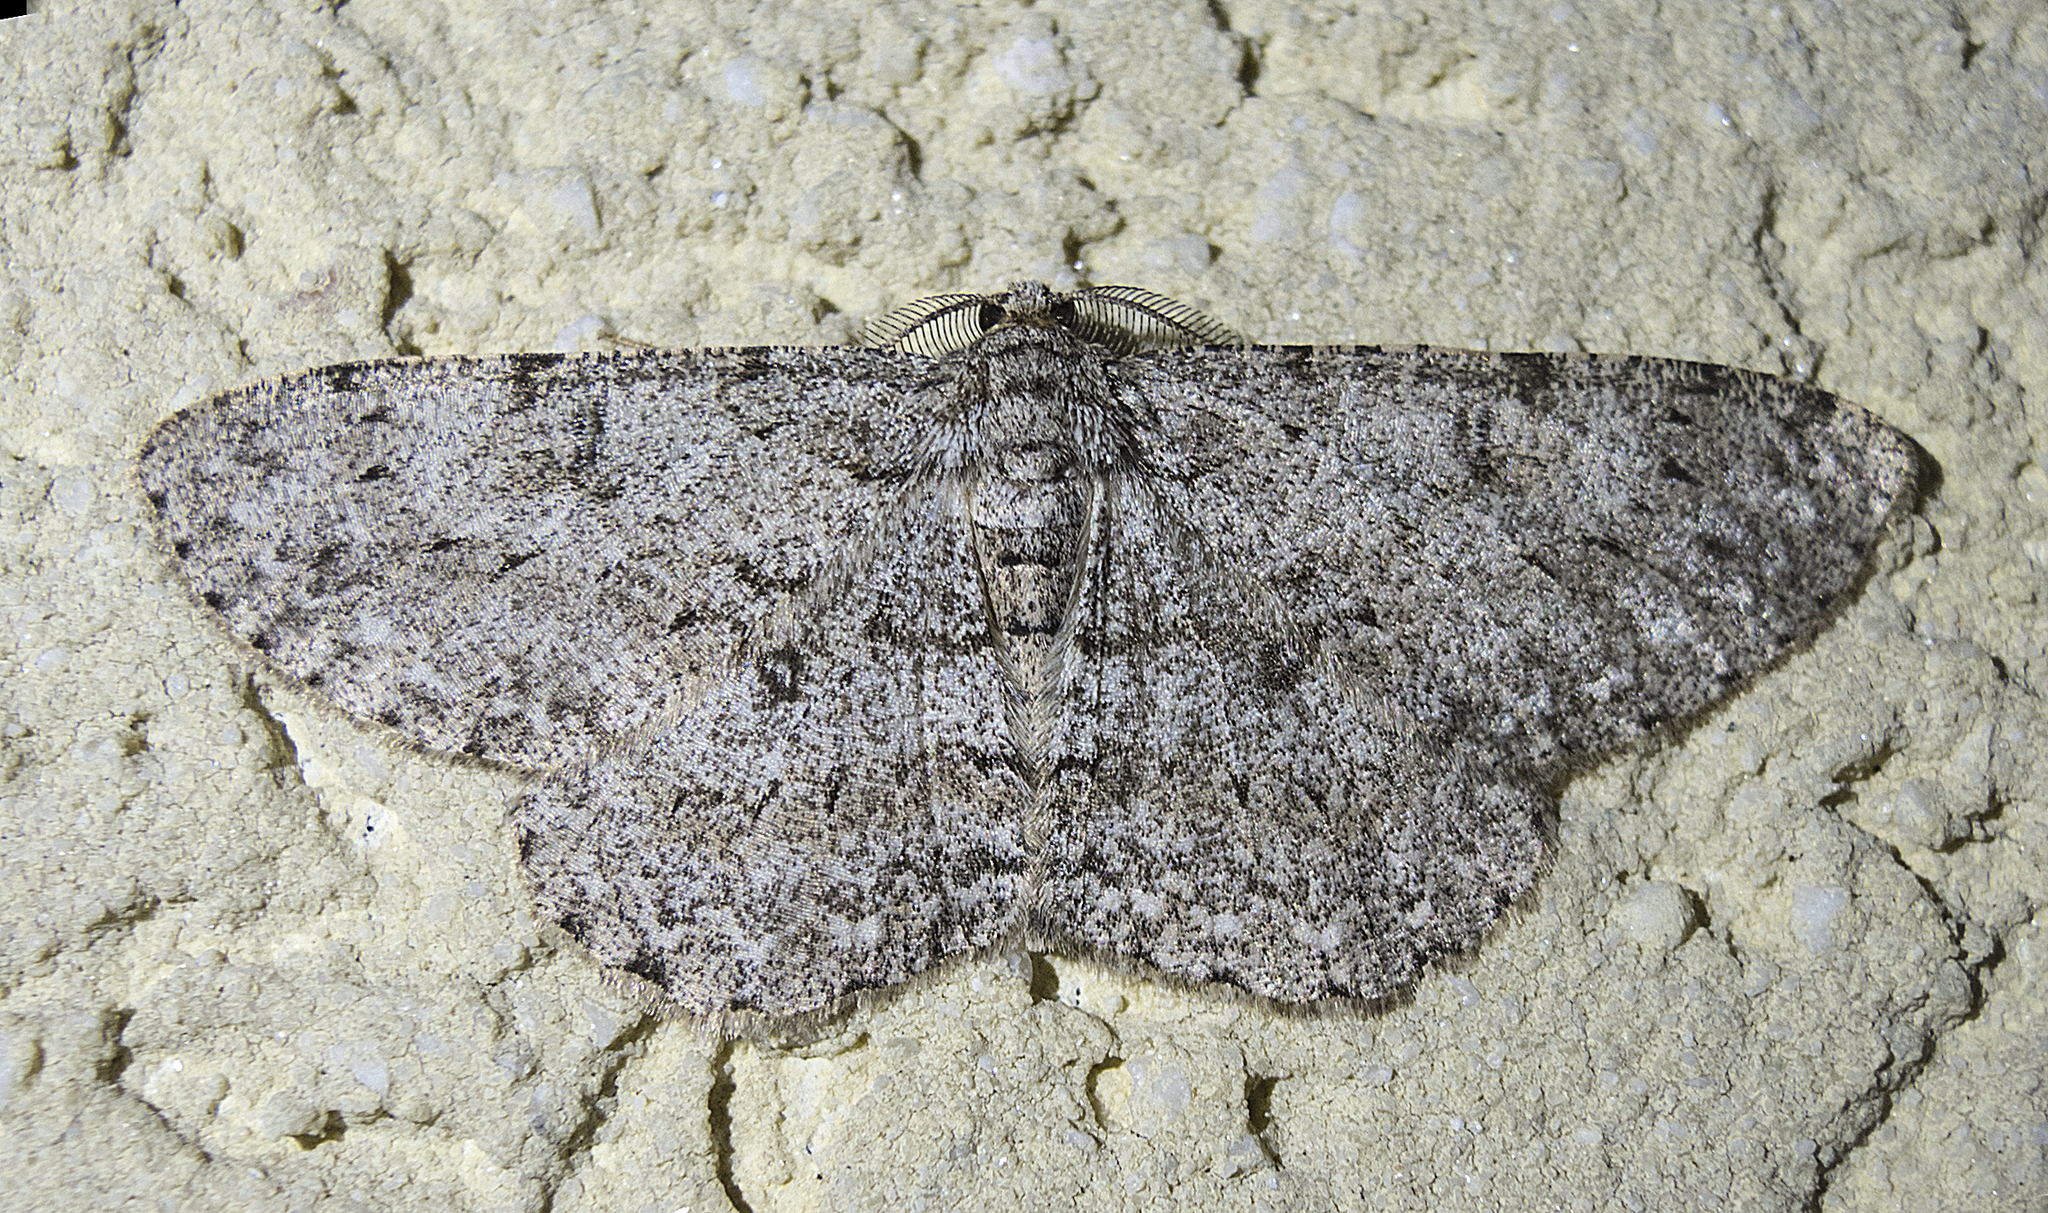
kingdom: Animalia
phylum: Arthropoda
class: Insecta
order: Lepidoptera
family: Geometridae
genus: Hypomecis
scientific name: Hypomecis punctinalis
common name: Pale oak beauty
